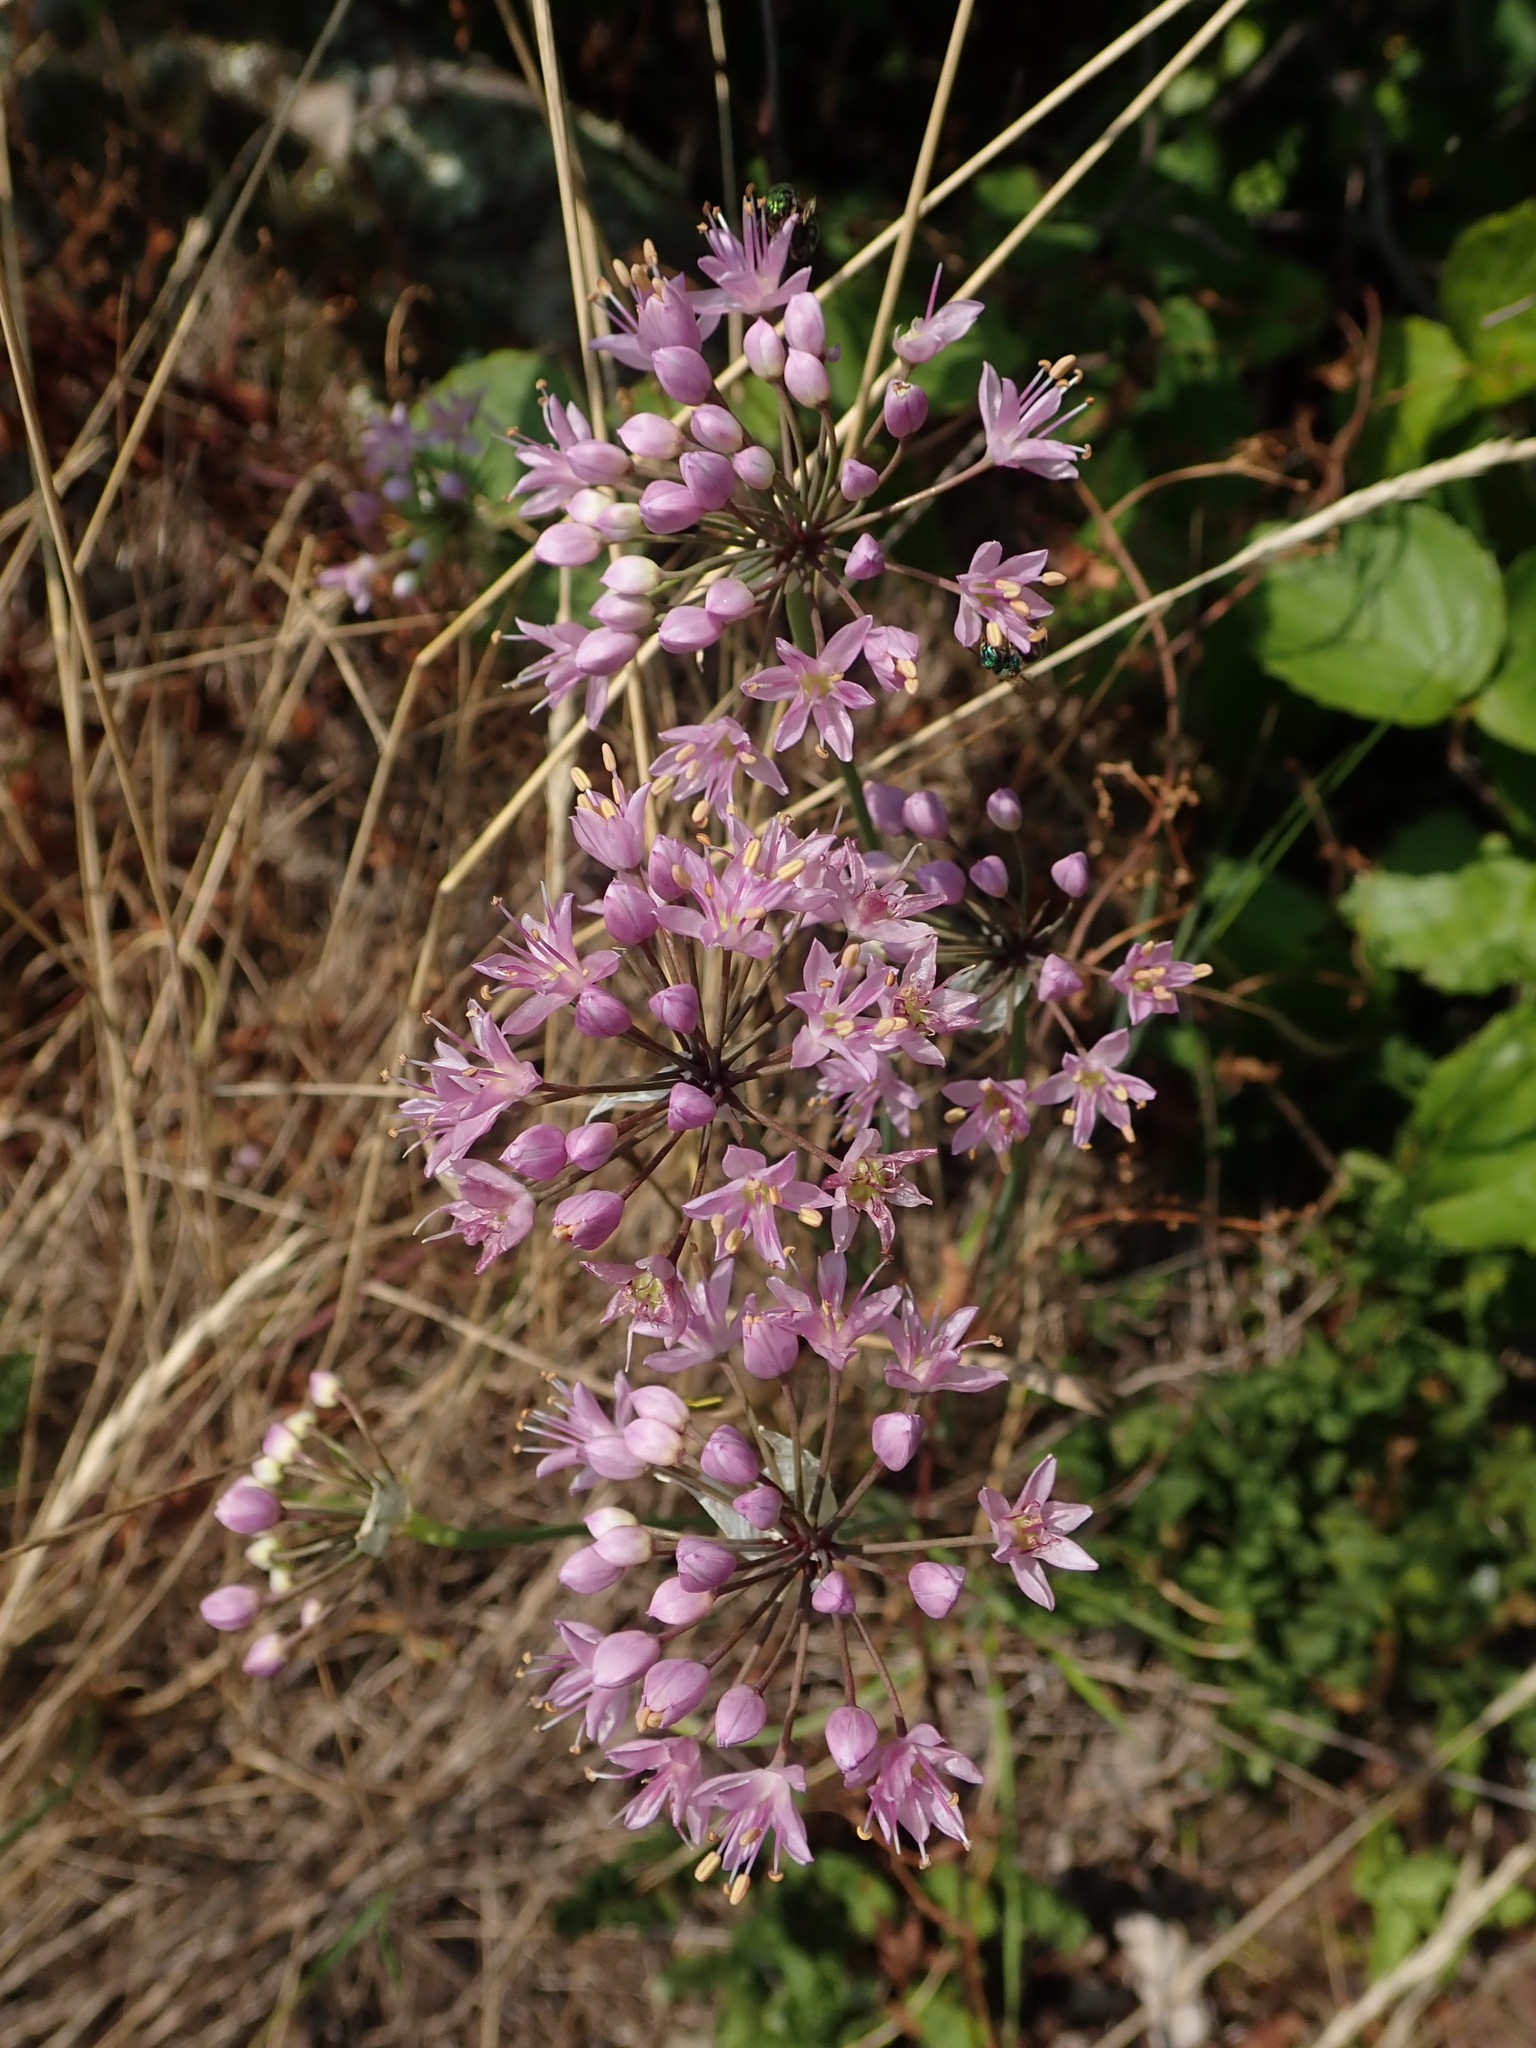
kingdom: Plantae
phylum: Tracheophyta
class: Liliopsida
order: Asparagales
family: Amaryllidaceae
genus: Allium
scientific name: Allium stellatum
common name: Autumn onion
